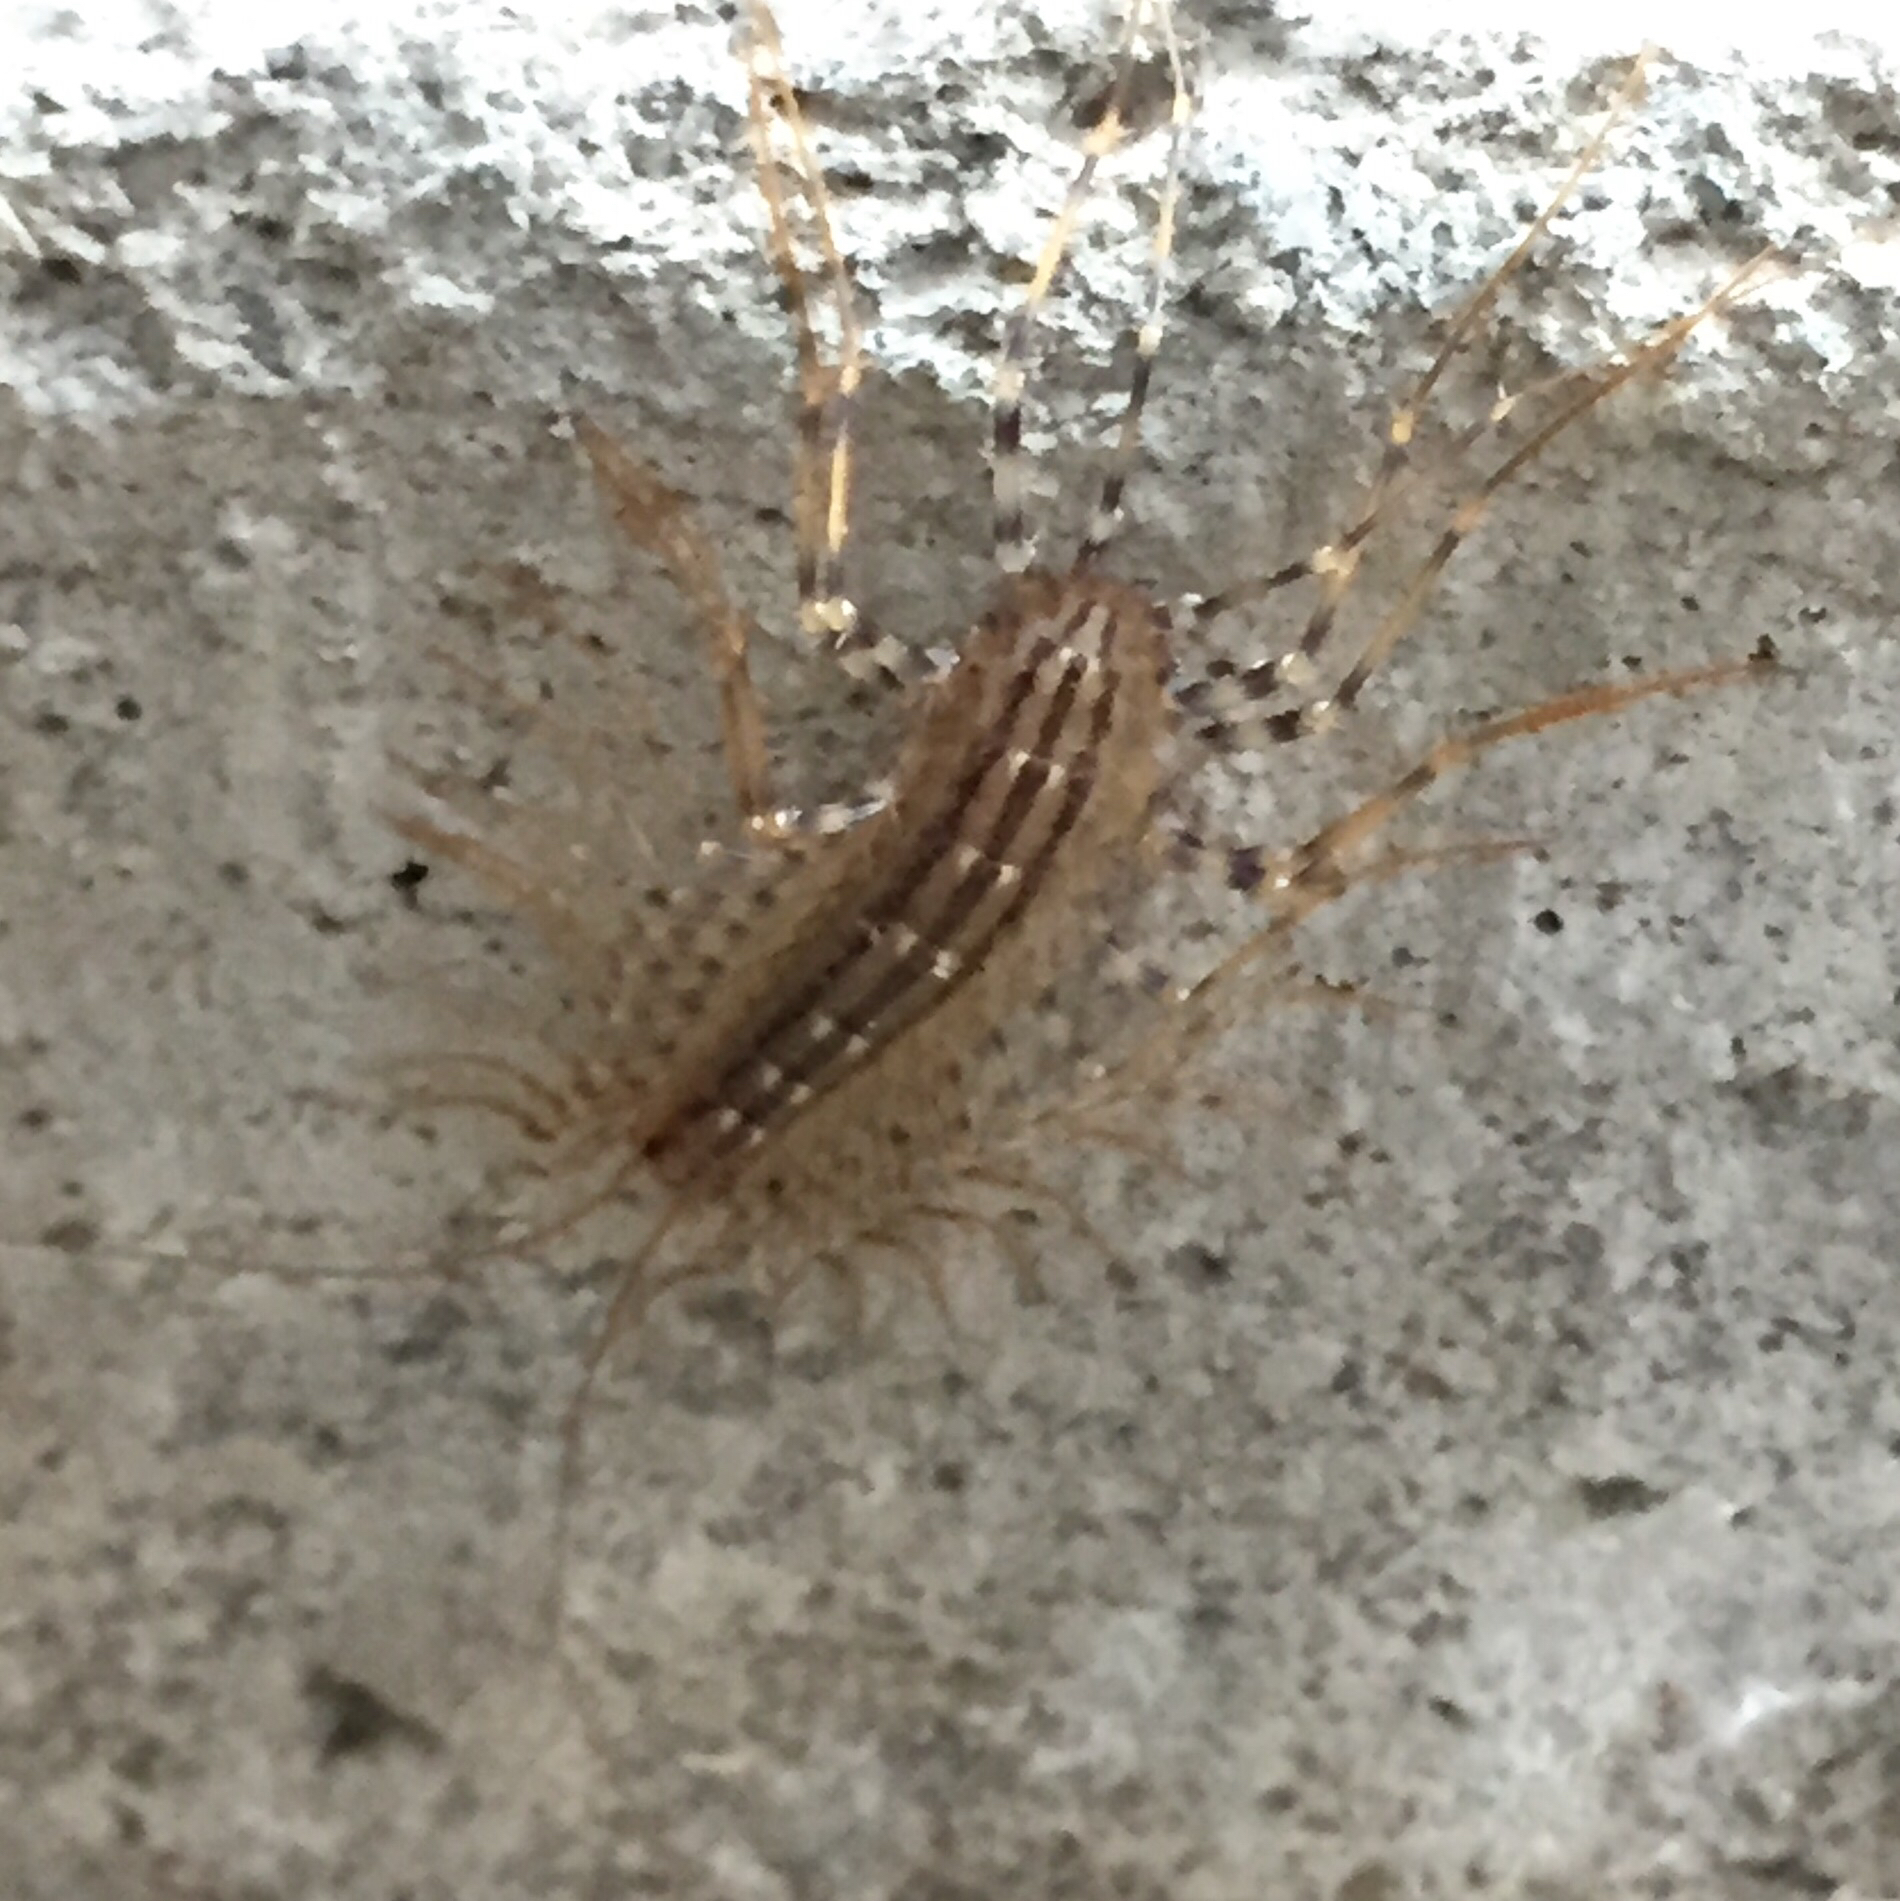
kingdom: Animalia
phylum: Arthropoda
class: Chilopoda
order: Scutigeromorpha
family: Scutigeridae
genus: Scutigera
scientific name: Scutigera coleoptrata
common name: House centipede
